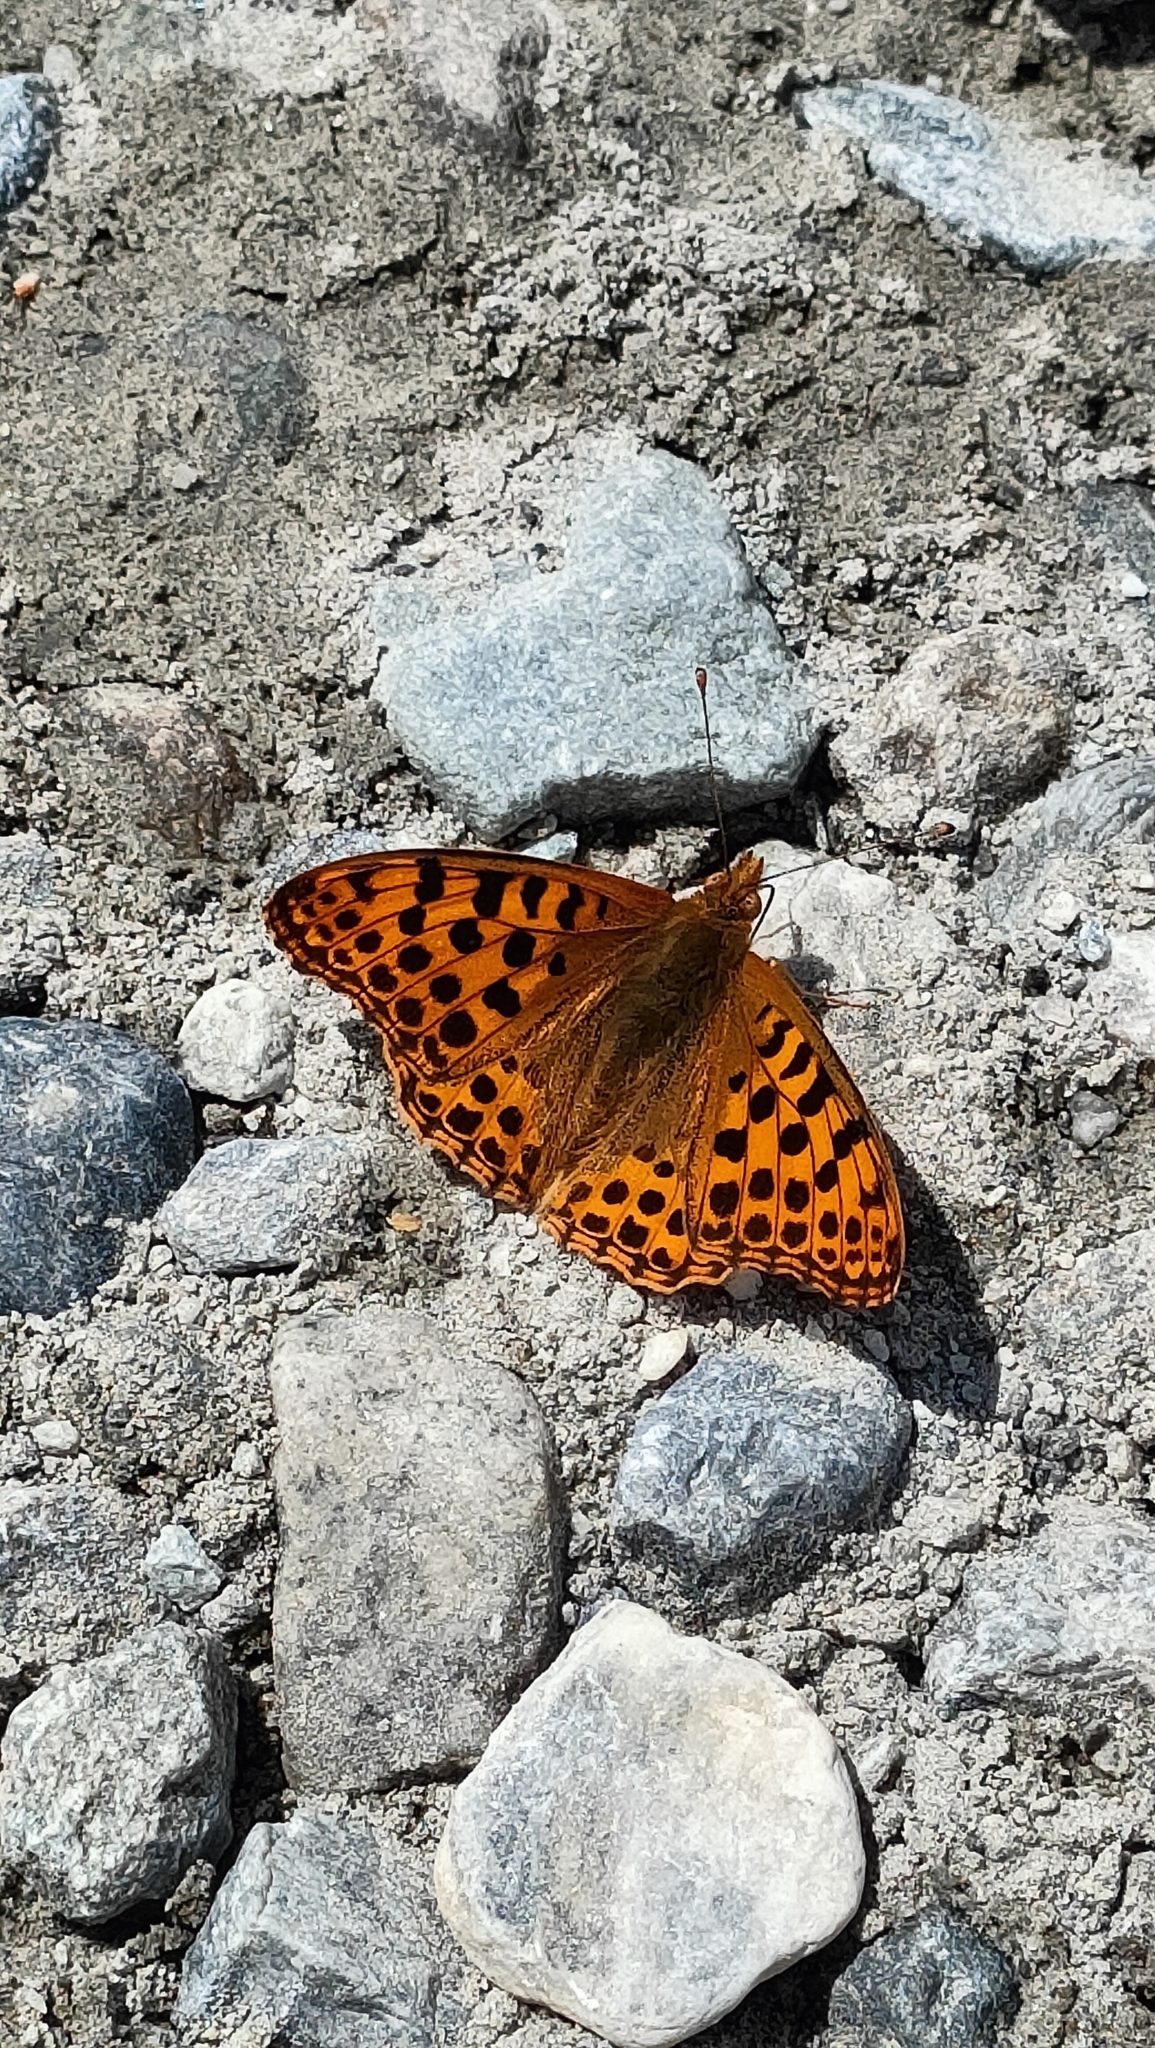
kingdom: Animalia
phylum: Arthropoda
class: Insecta
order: Lepidoptera
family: Nymphalidae
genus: Issoria
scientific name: Issoria lathonia
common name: Queen of spain fritillary
